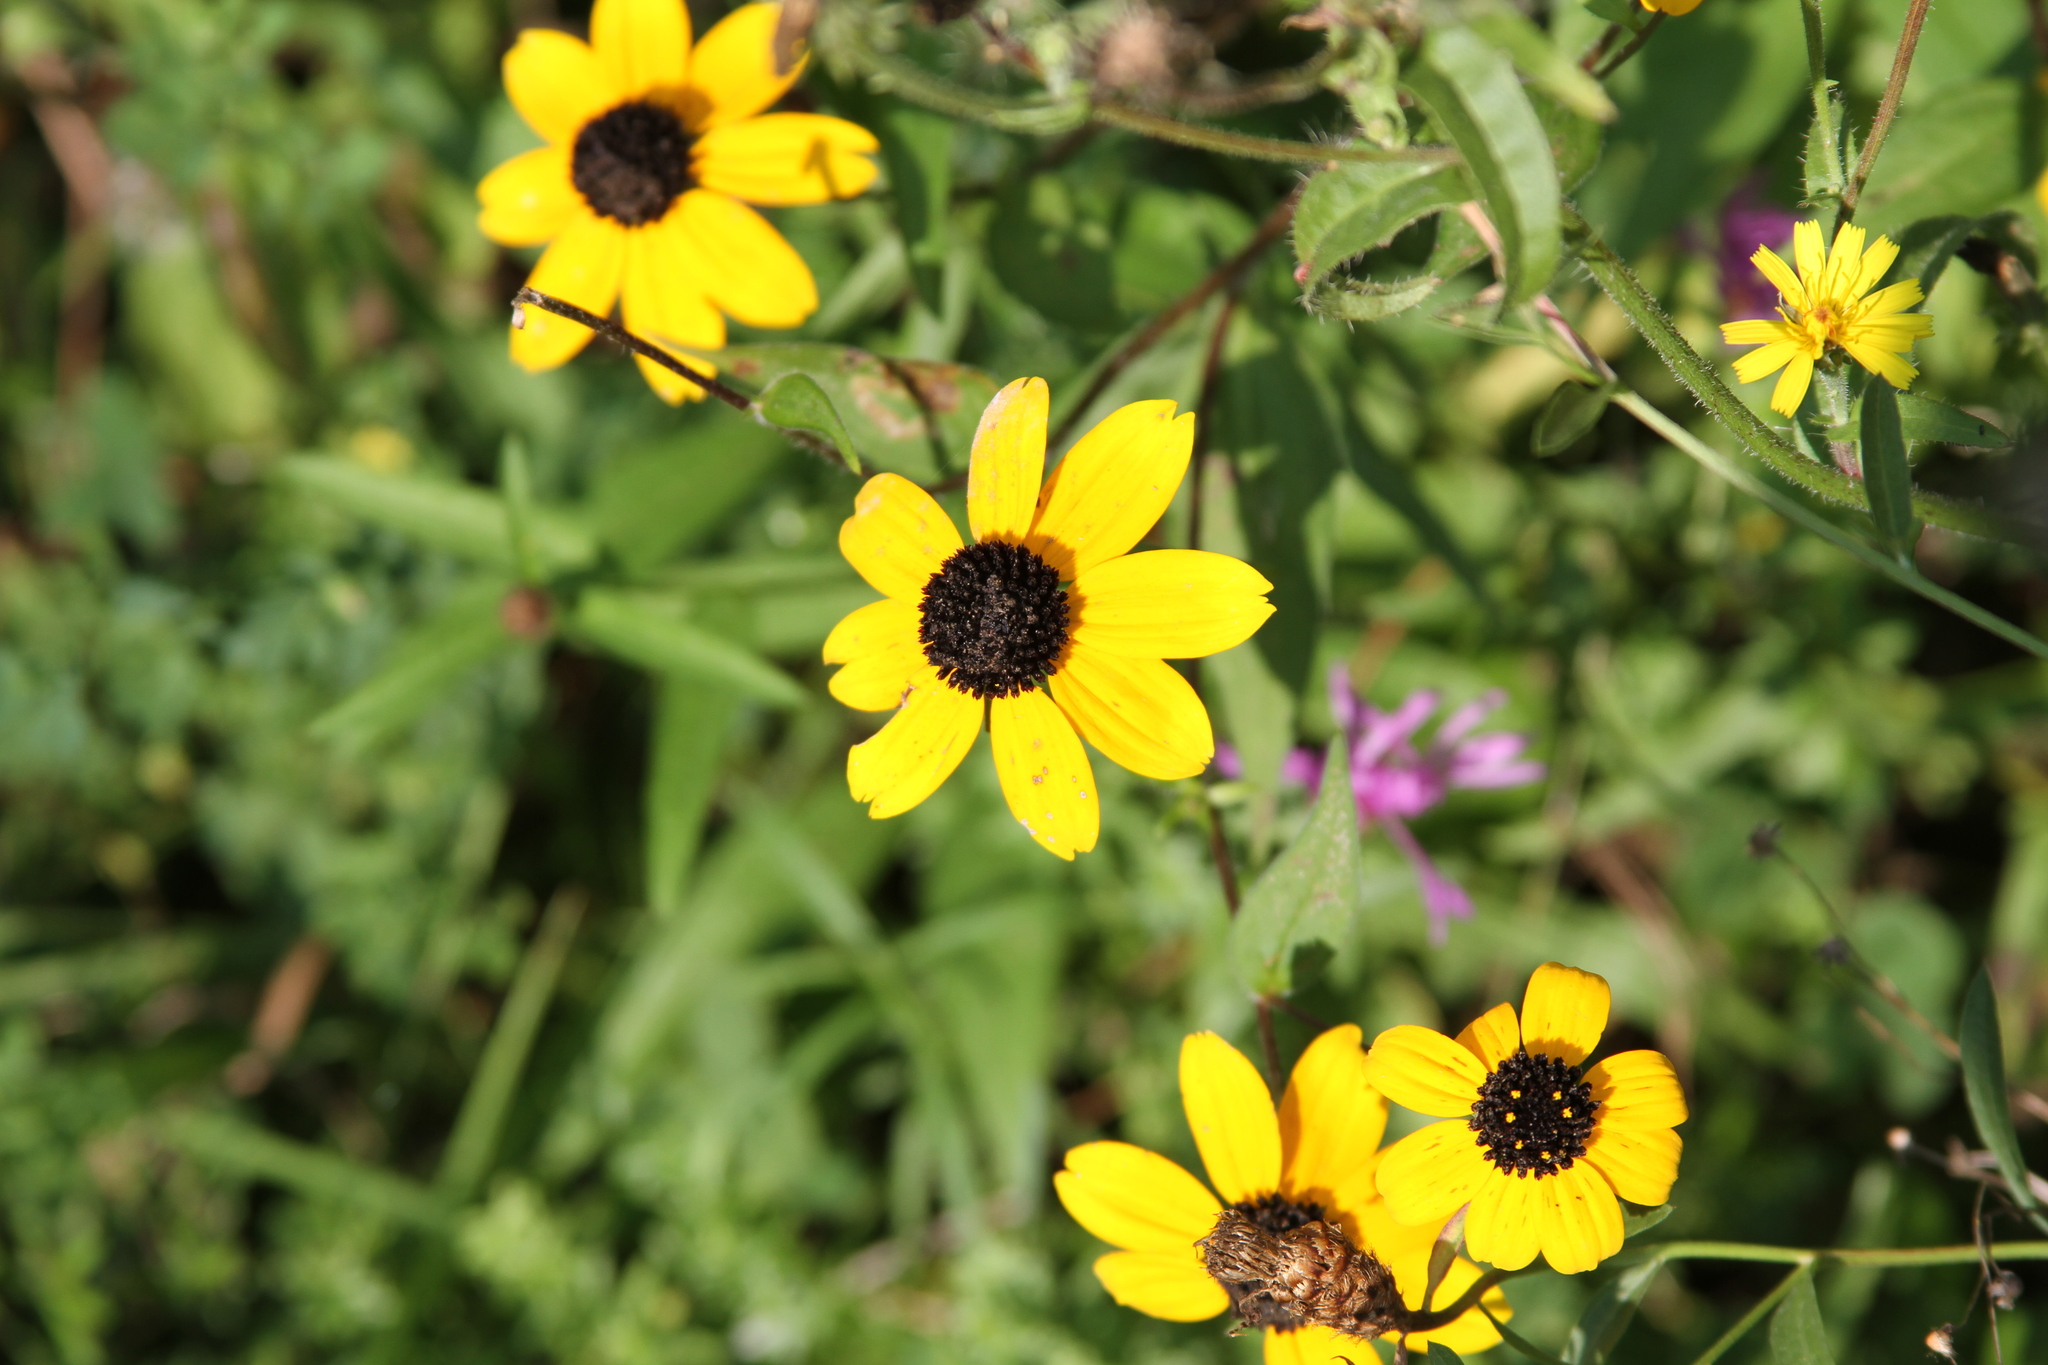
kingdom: Plantae
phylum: Tracheophyta
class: Magnoliopsida
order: Asterales
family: Asteraceae
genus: Rudbeckia
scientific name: Rudbeckia triloba
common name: Thin-leaved coneflower
